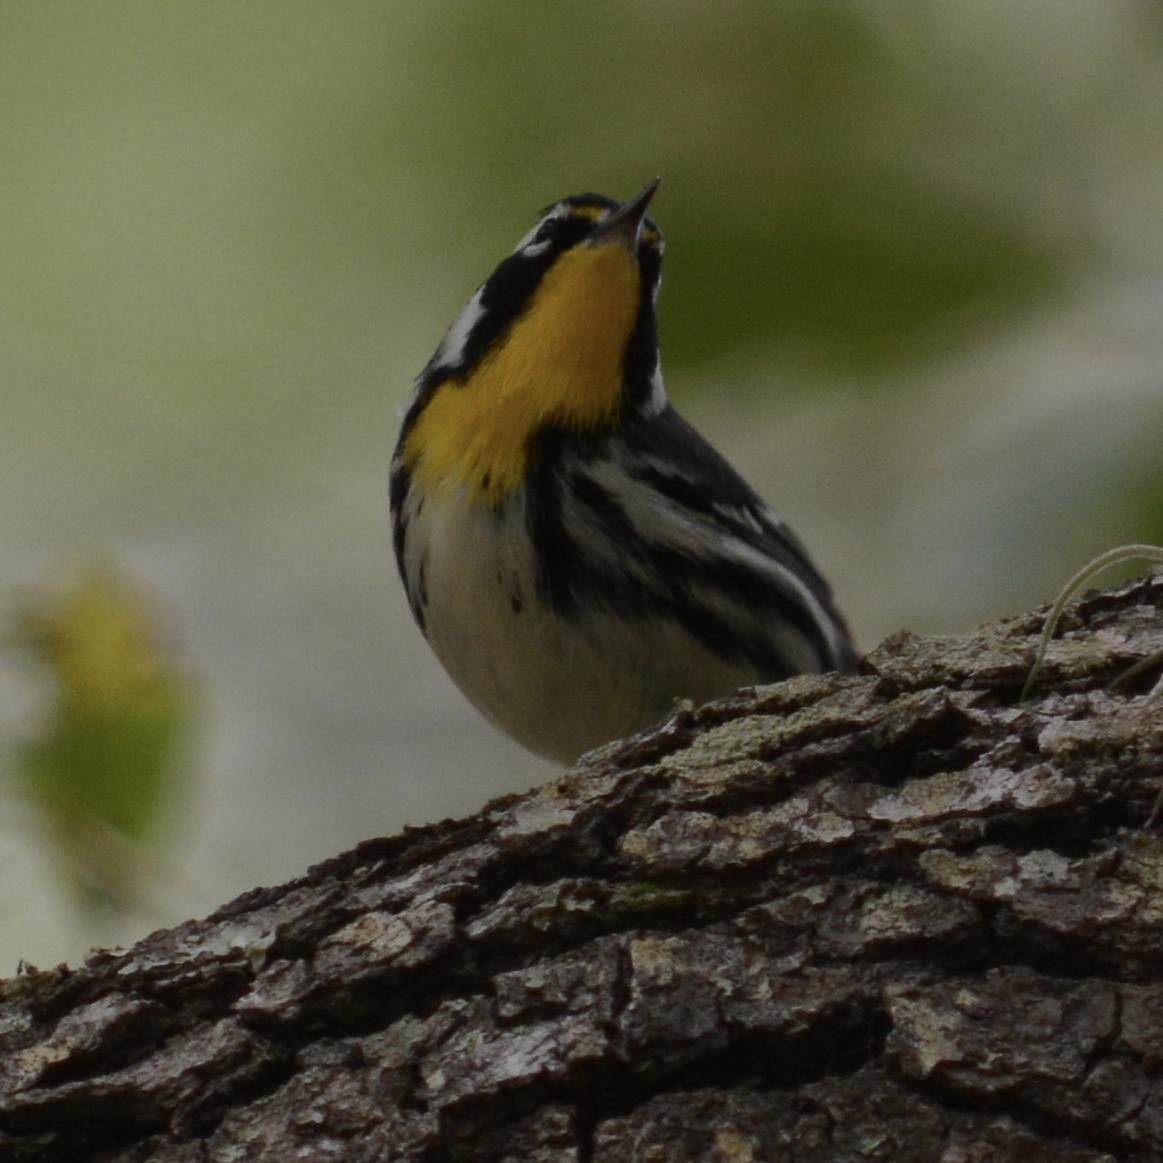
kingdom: Animalia
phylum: Chordata
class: Aves
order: Passeriformes
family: Parulidae
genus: Setophaga
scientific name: Setophaga dominica
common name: Yellow-throated warbler
